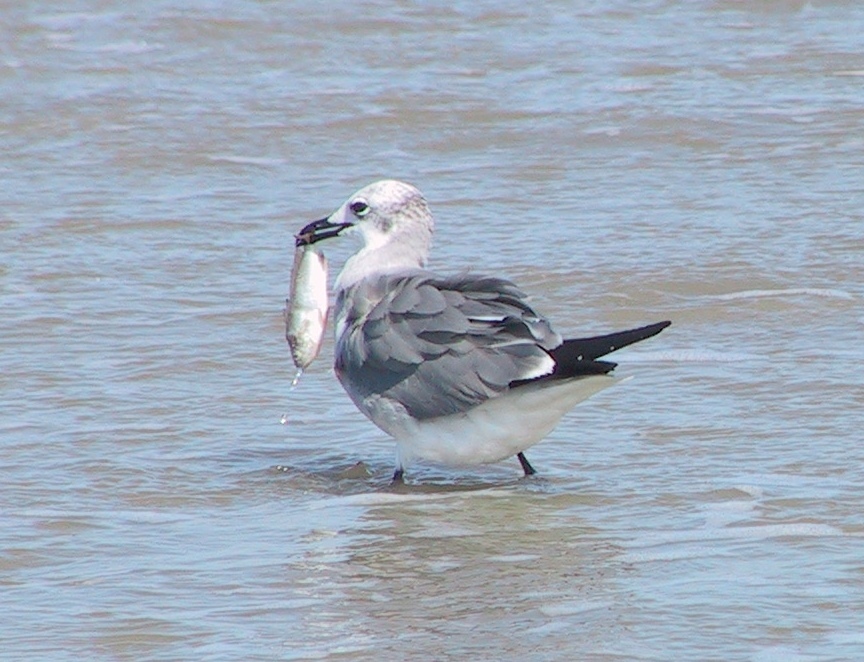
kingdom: Animalia
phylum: Chordata
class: Aves
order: Charadriiformes
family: Laridae
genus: Leucophaeus
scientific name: Leucophaeus atricilla
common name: Laughing gull
